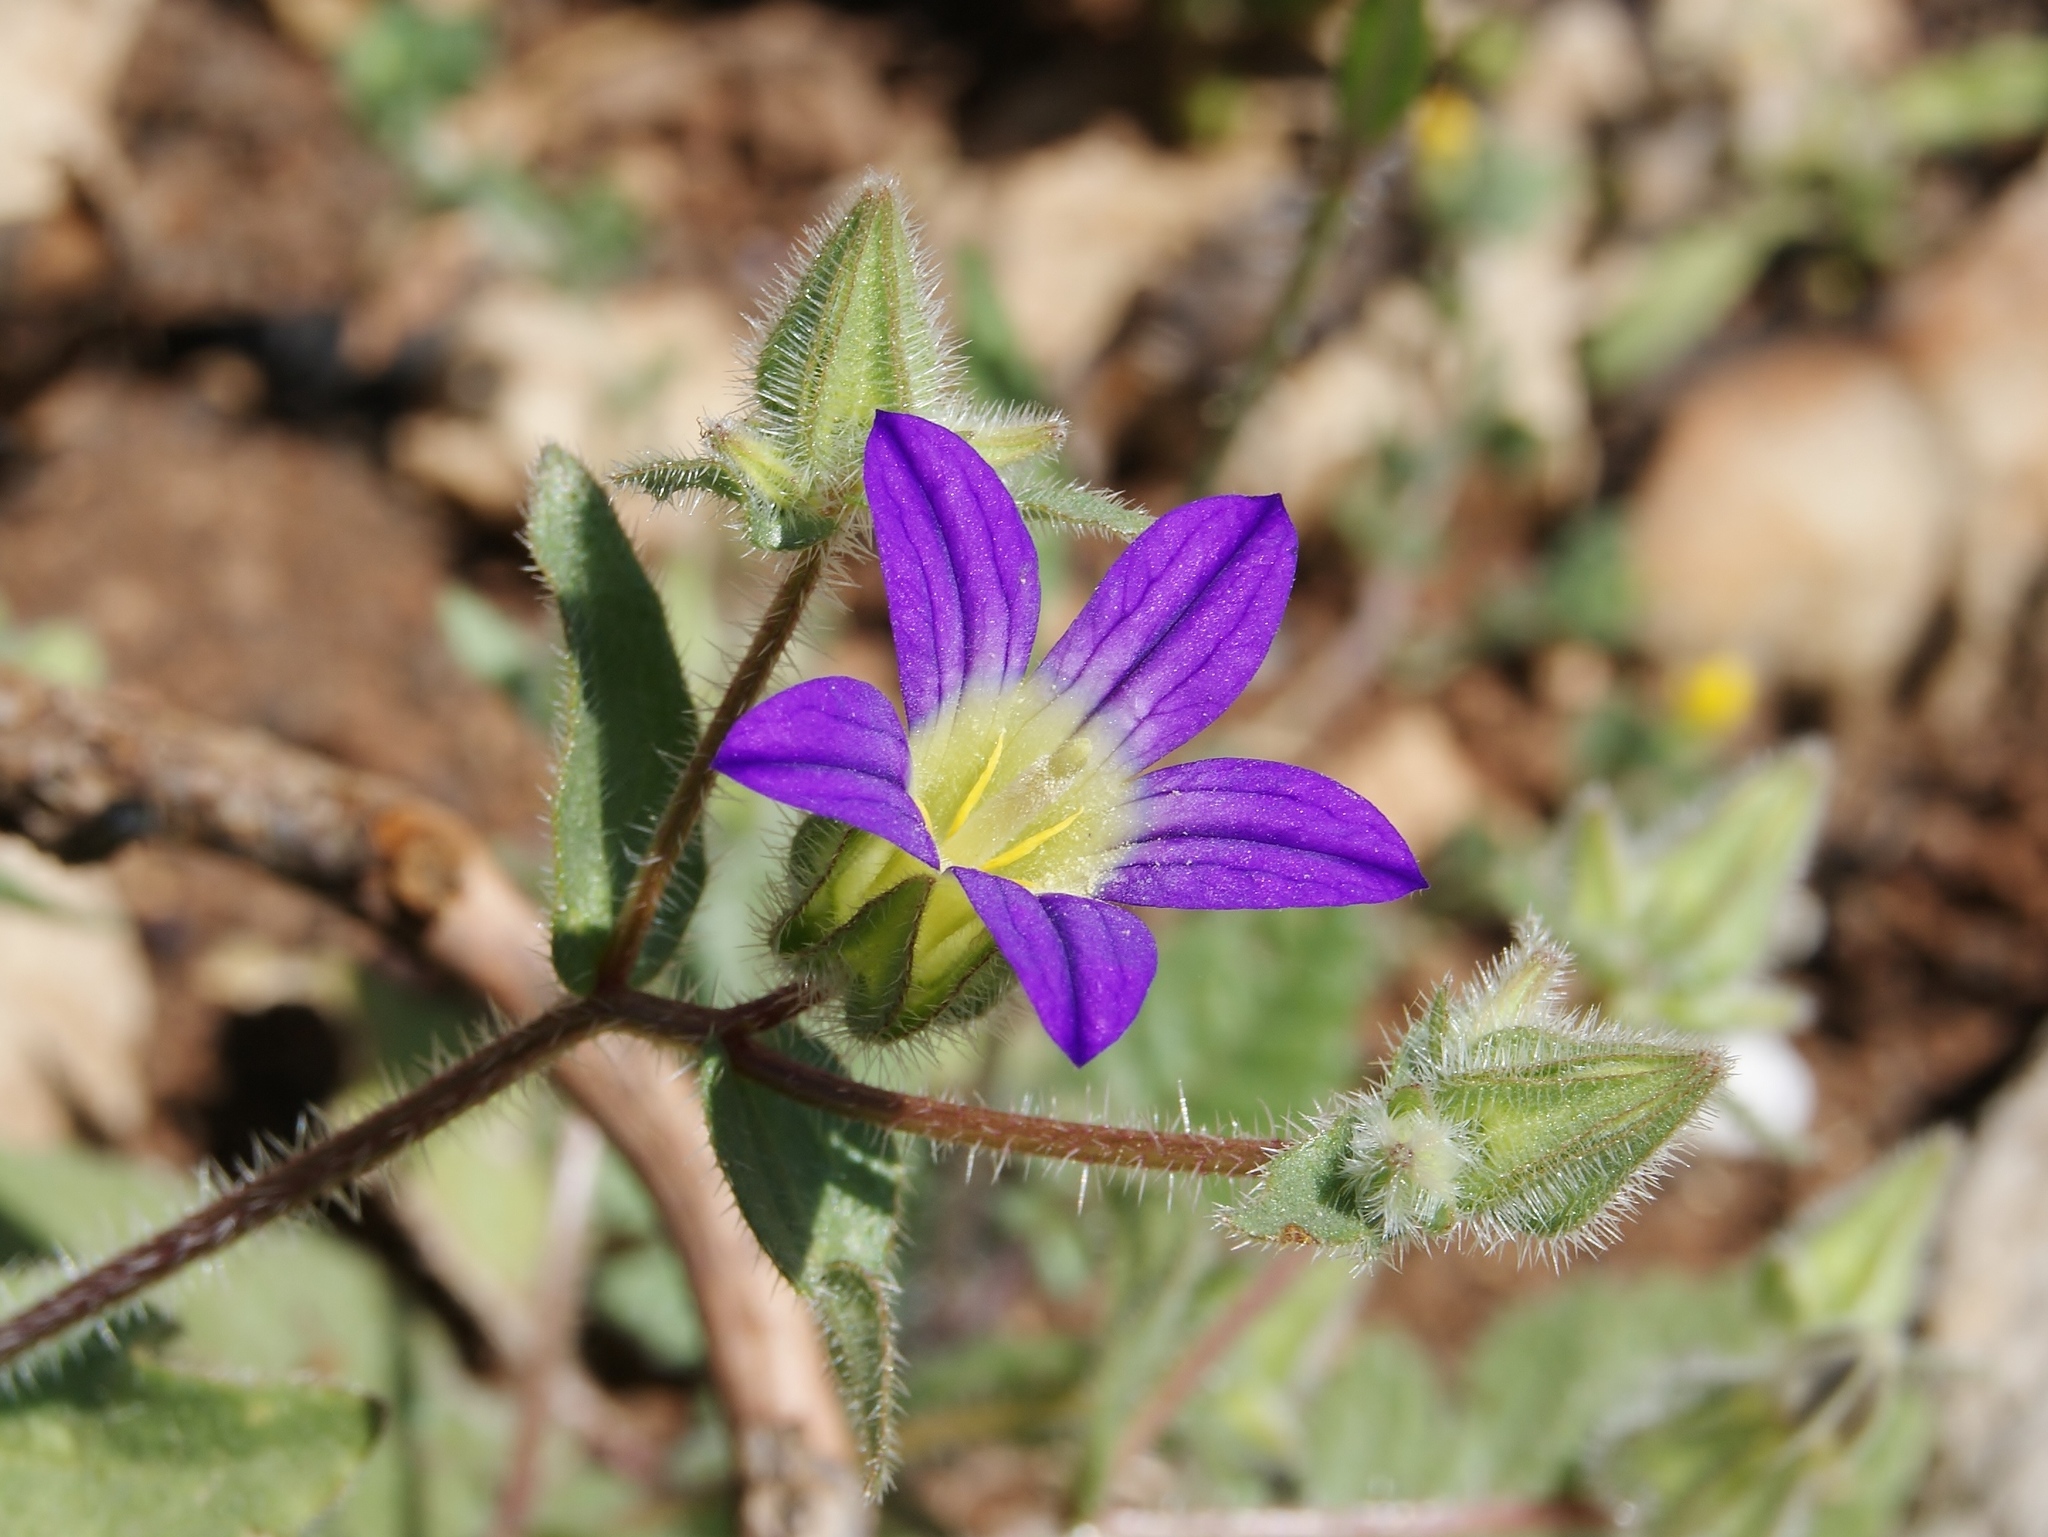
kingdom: Plantae
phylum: Tracheophyta
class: Magnoliopsida
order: Asterales
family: Campanulaceae
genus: Campanula
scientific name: Campanula hierosolymitana
